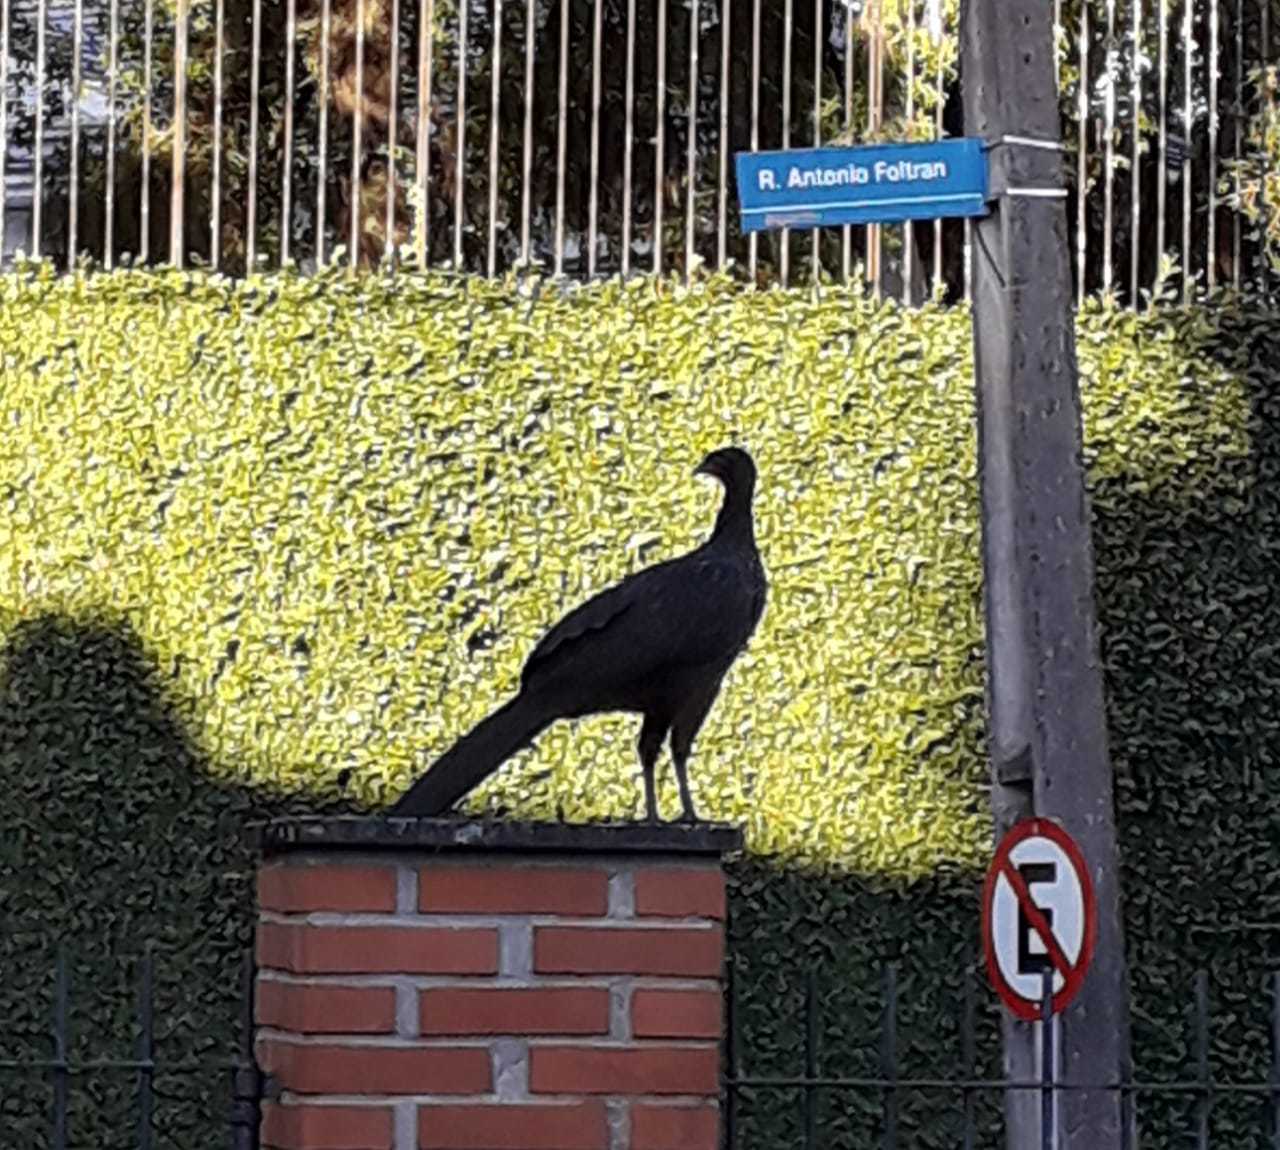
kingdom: Animalia
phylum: Chordata
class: Aves
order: Galliformes
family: Cracidae
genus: Penelope
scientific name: Penelope obscura
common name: Dusky-legged guan
